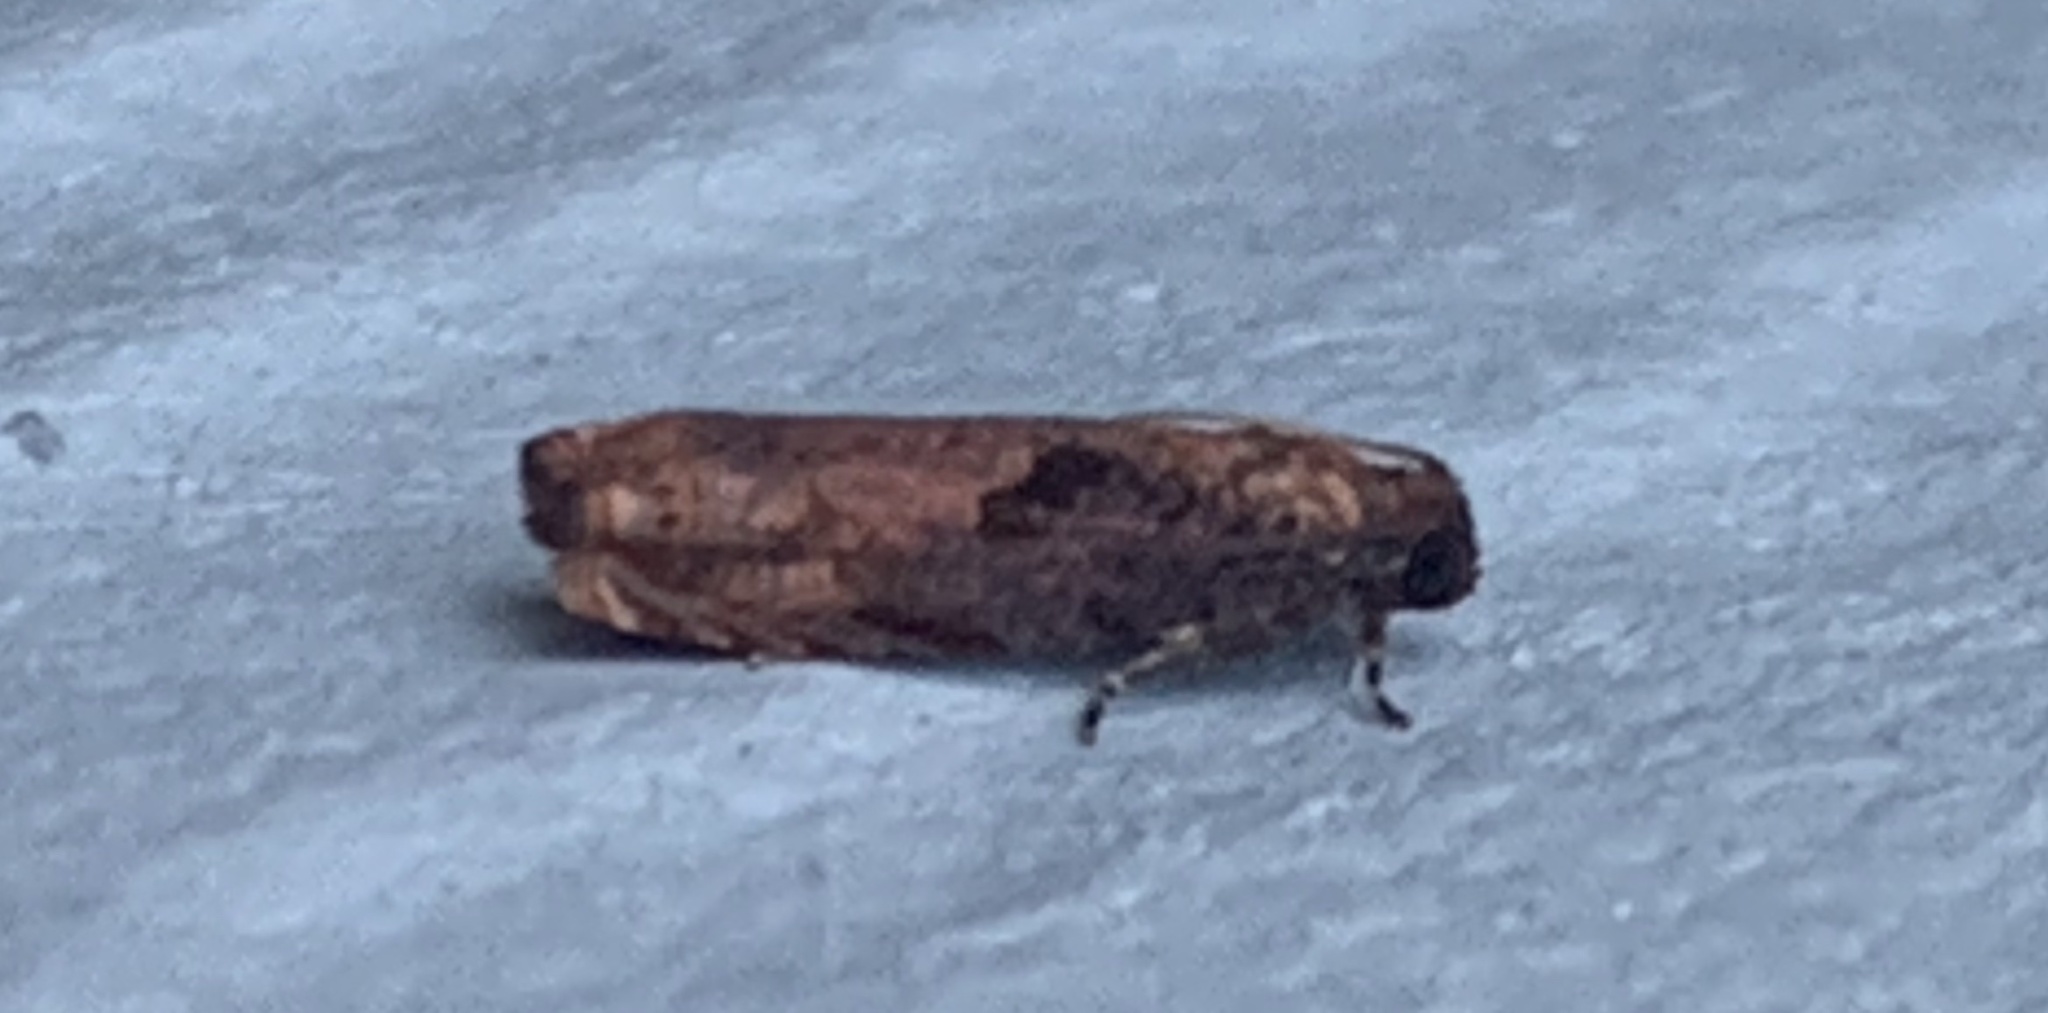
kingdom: Animalia
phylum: Arthropoda
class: Insecta
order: Lepidoptera
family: Tortricidae
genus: Episimus
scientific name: Episimus tyrius
